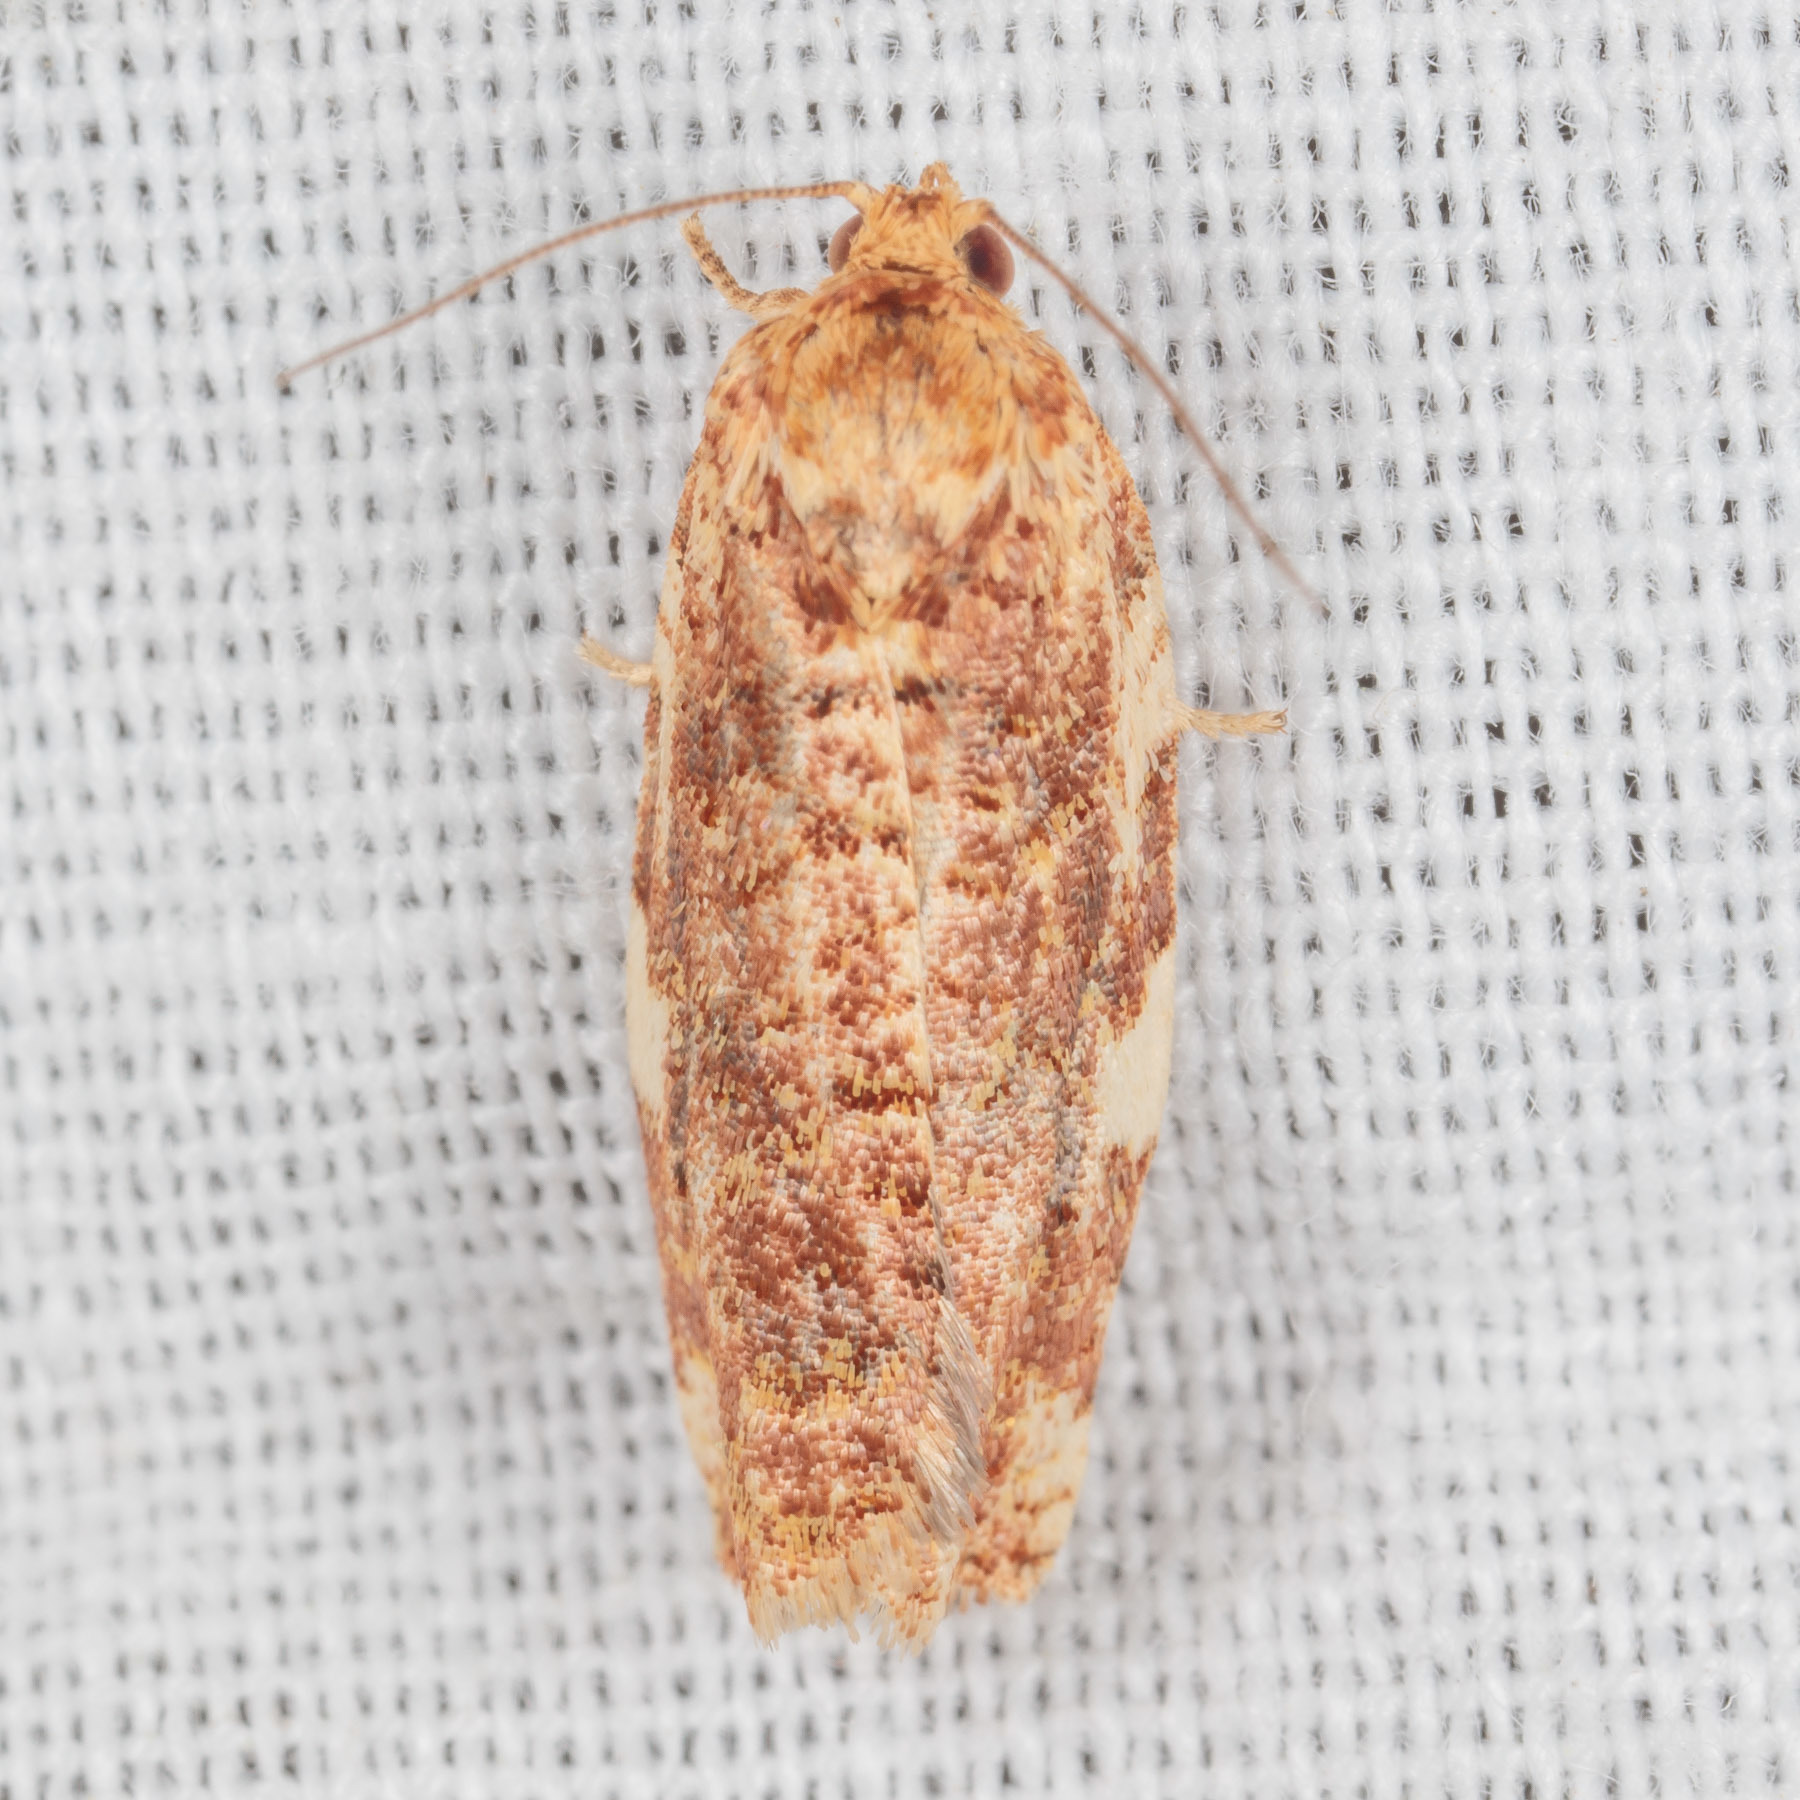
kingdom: Animalia
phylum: Arthropoda
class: Insecta
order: Lepidoptera
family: Tortricidae
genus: Archips
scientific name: Archips argyrospila
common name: Fruit-tree leafroller moth
